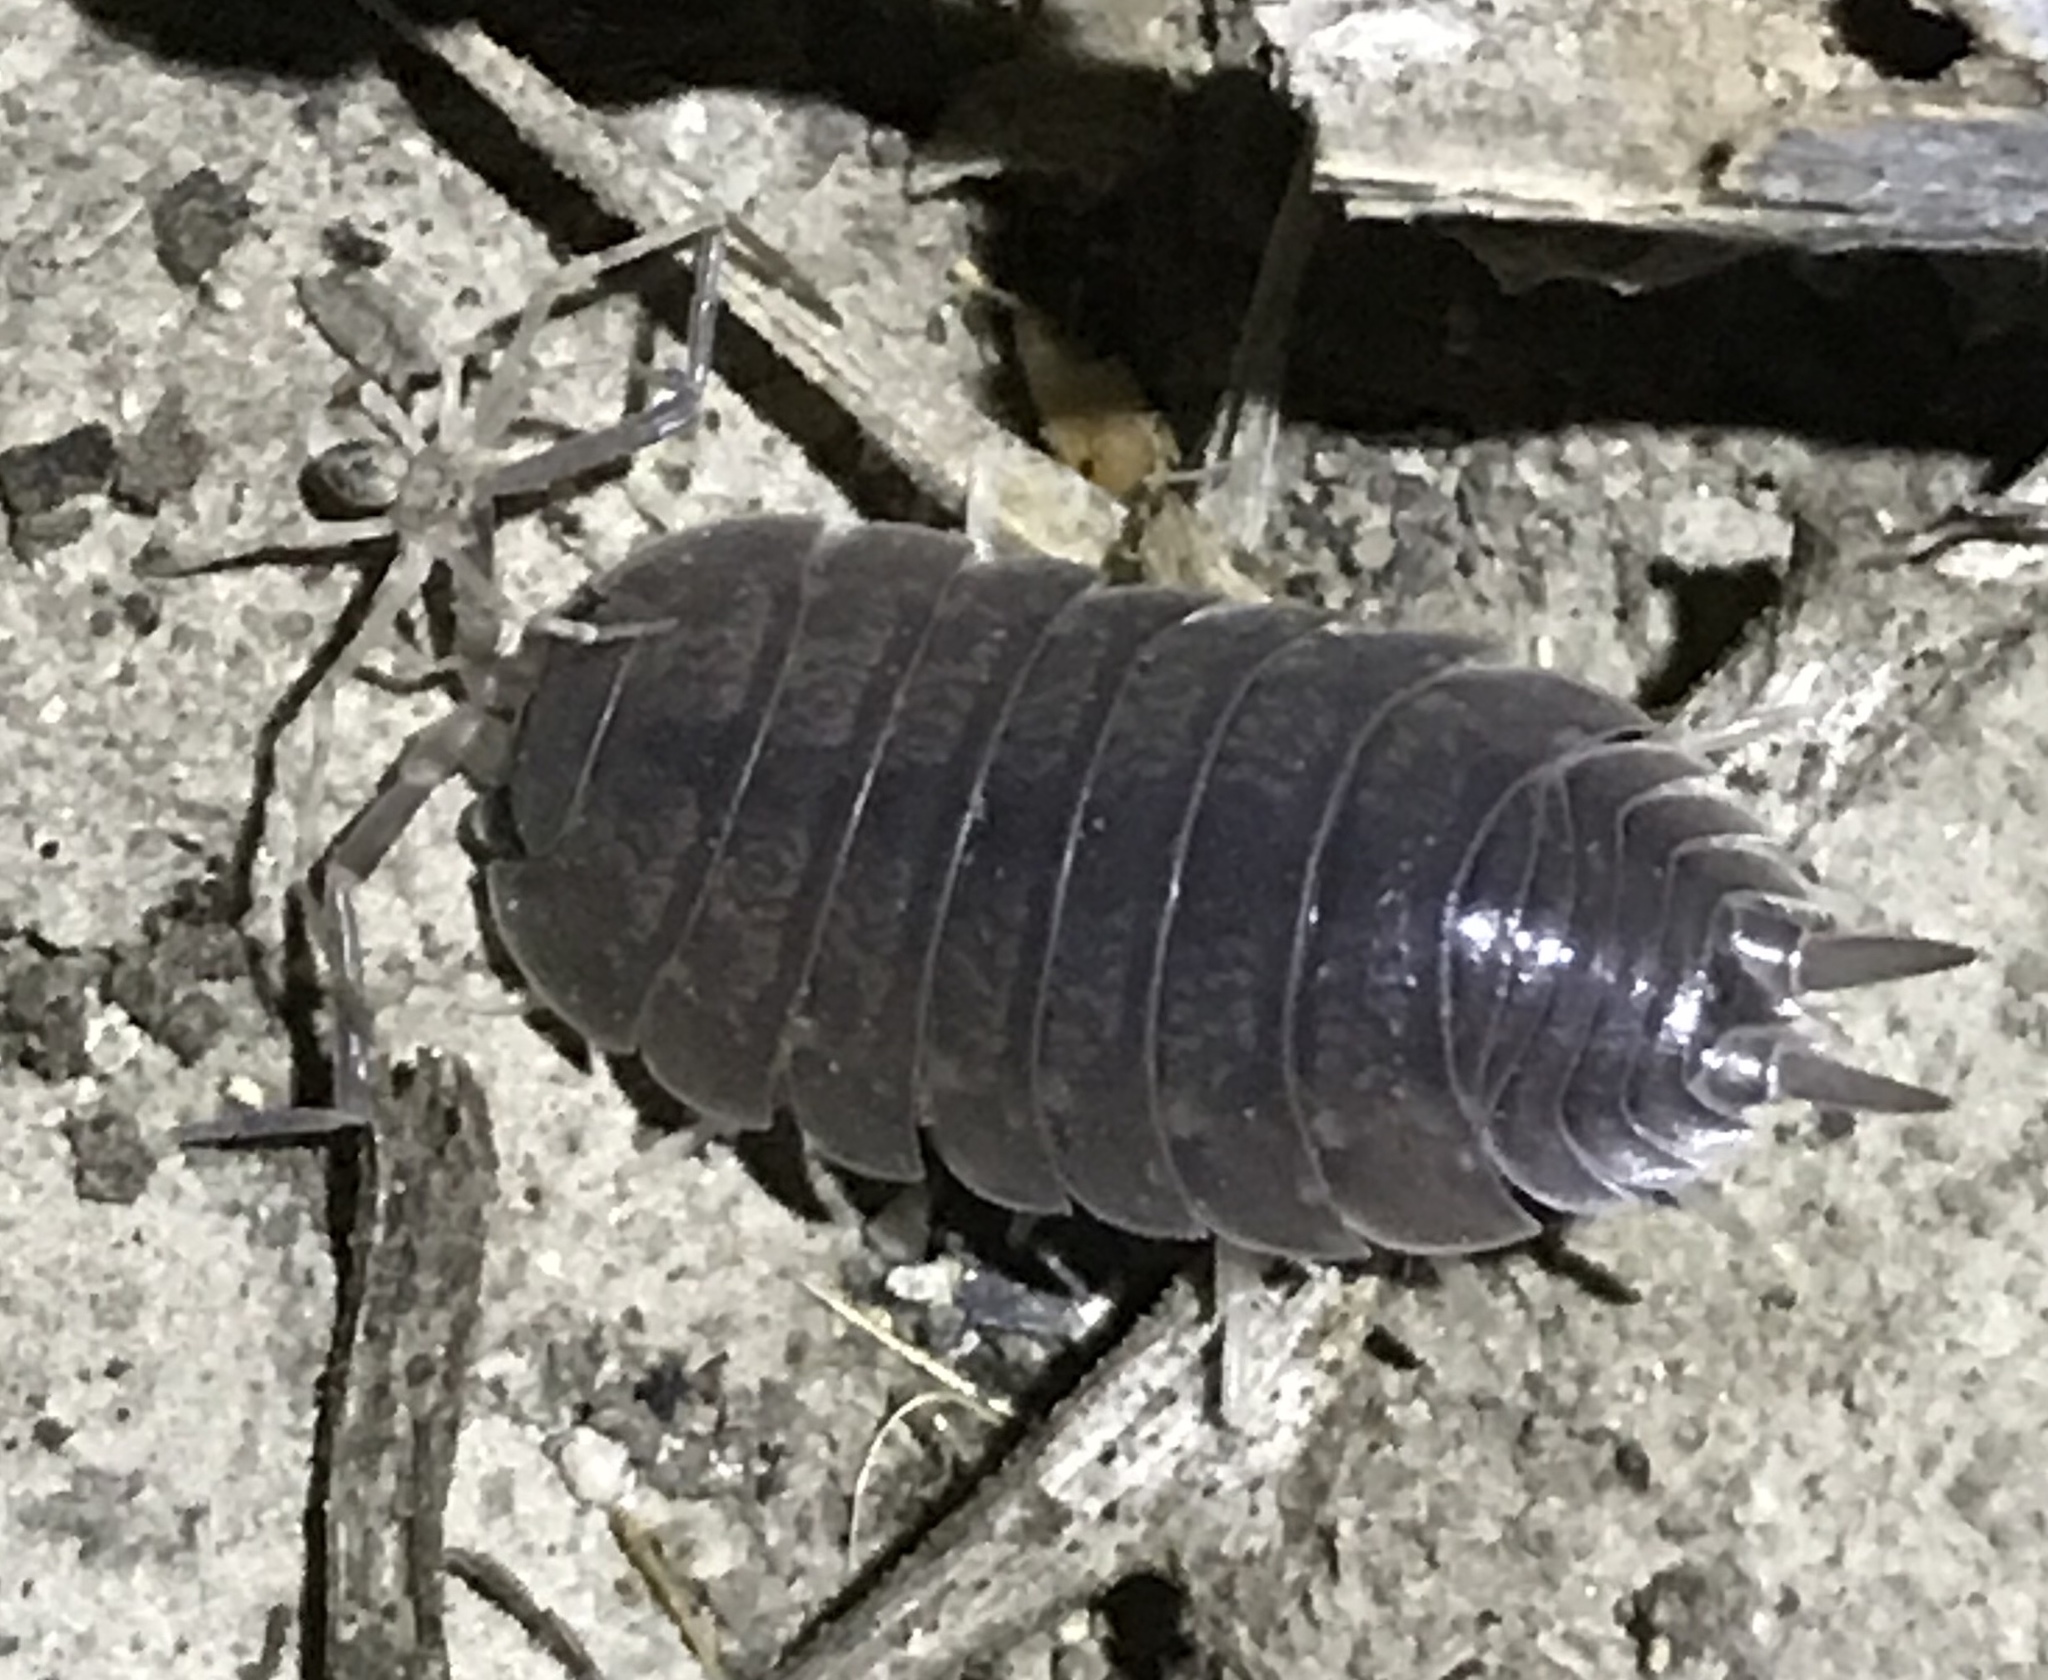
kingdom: Animalia
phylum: Arthropoda
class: Malacostraca
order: Isopoda
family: Porcellionidae
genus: Porcellio
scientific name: Porcellio laevis
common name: Swift woodlouse
